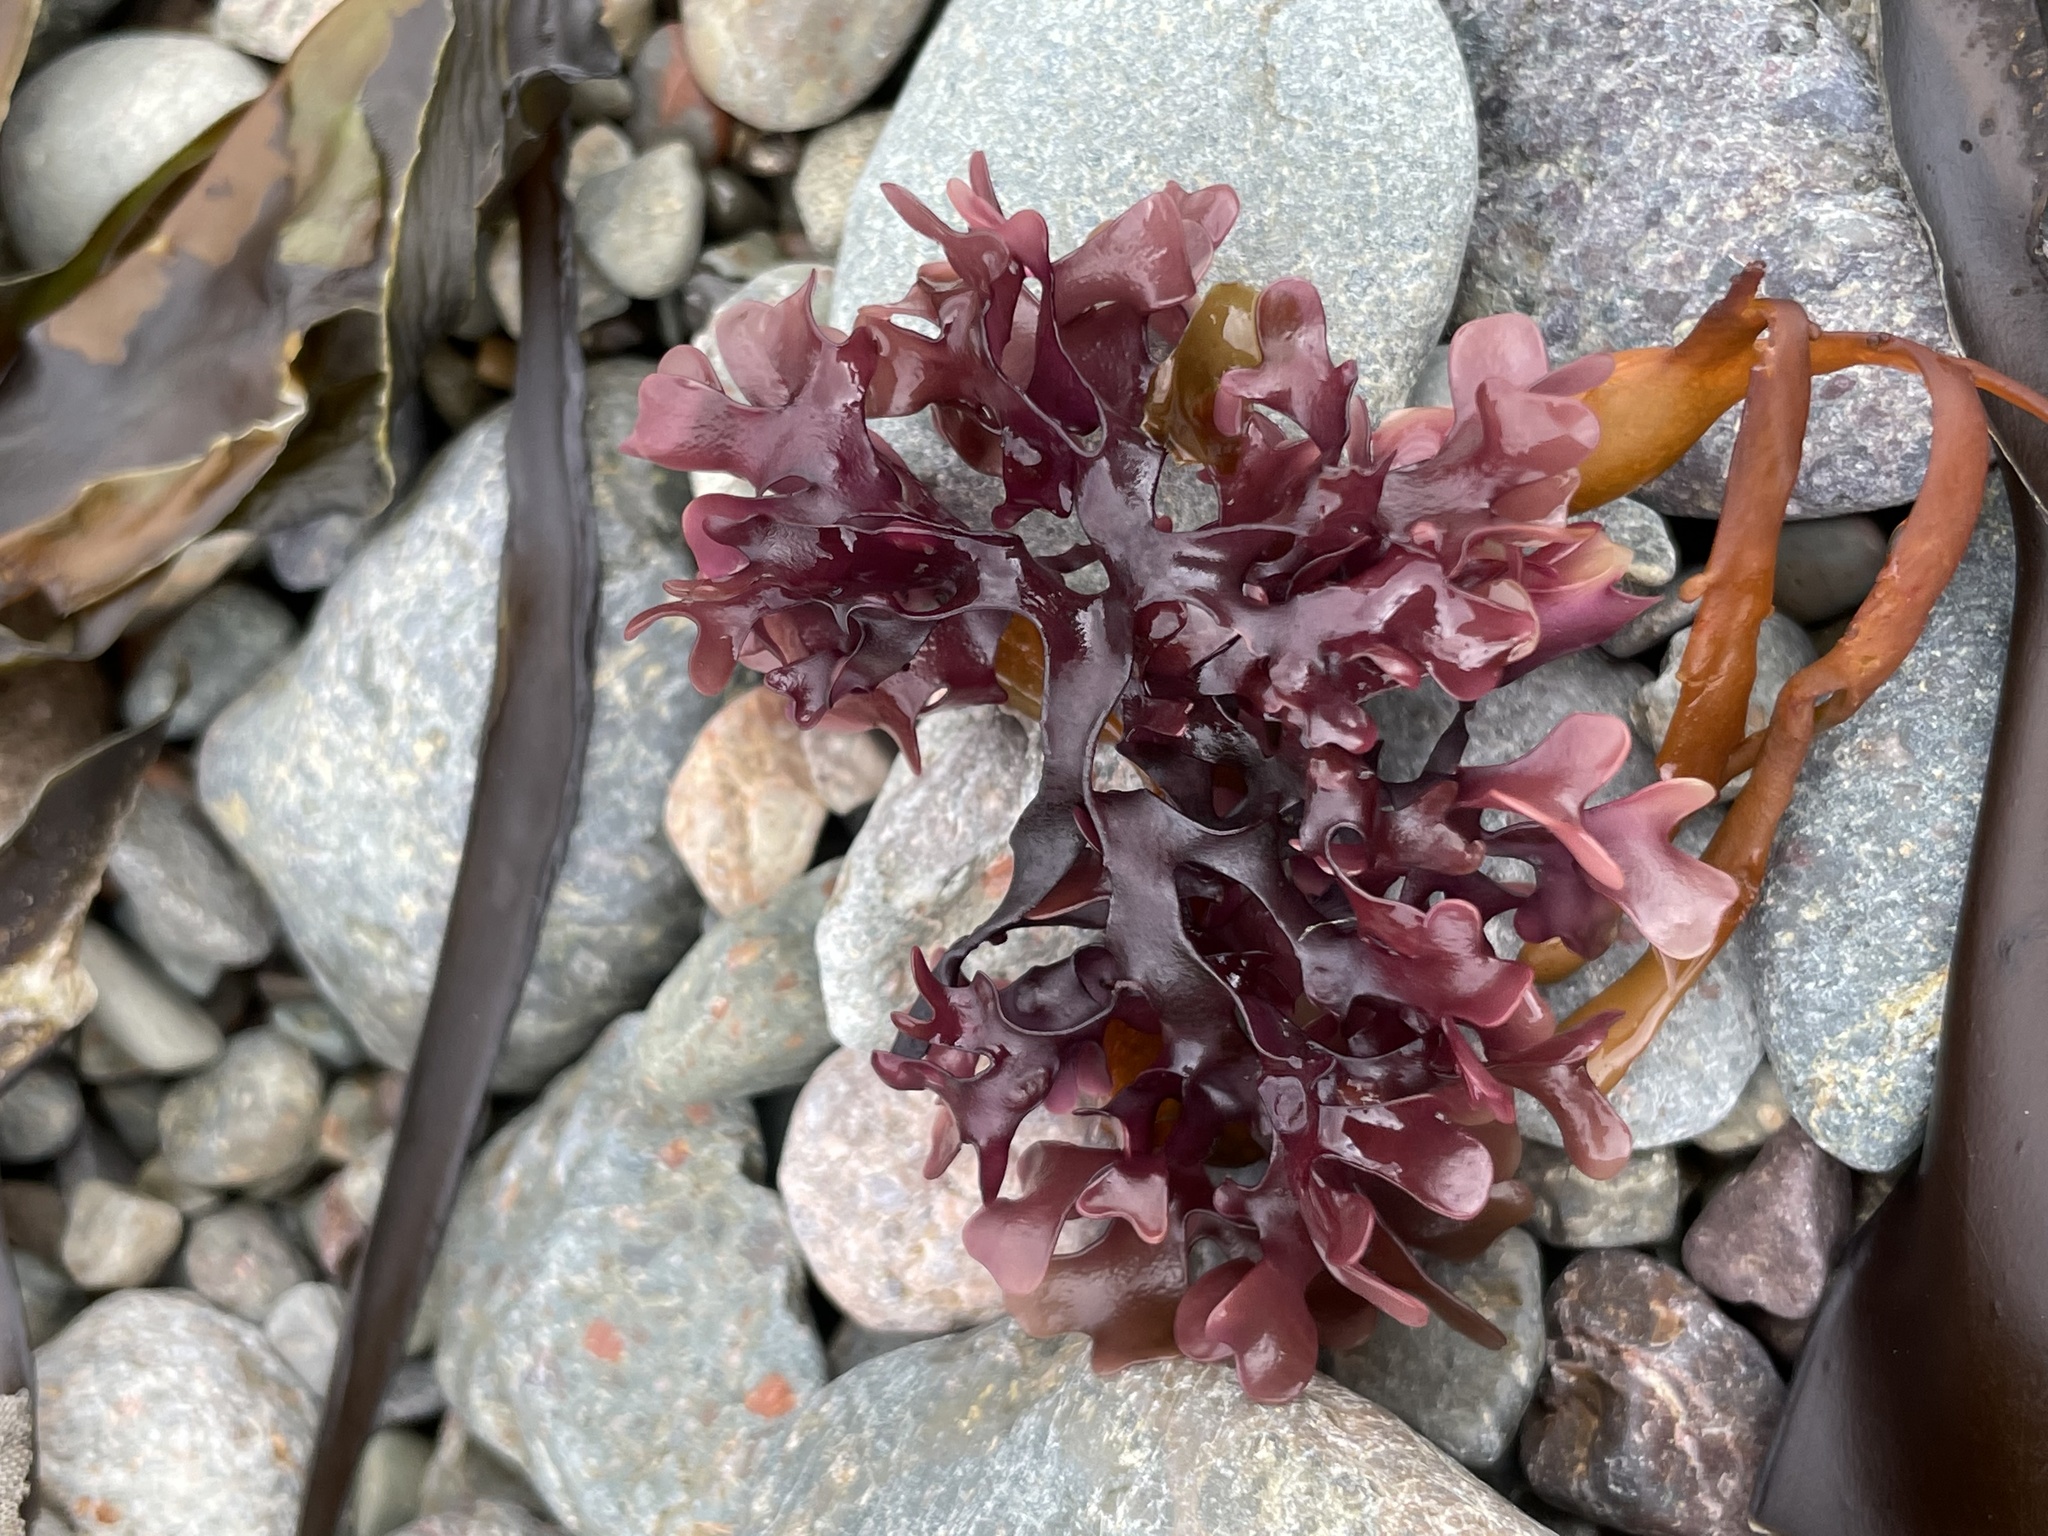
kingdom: Plantae
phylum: Rhodophyta
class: Florideophyceae
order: Gigartinales
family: Gigartinaceae
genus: Chondrus
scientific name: Chondrus crispus
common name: Carrageen
